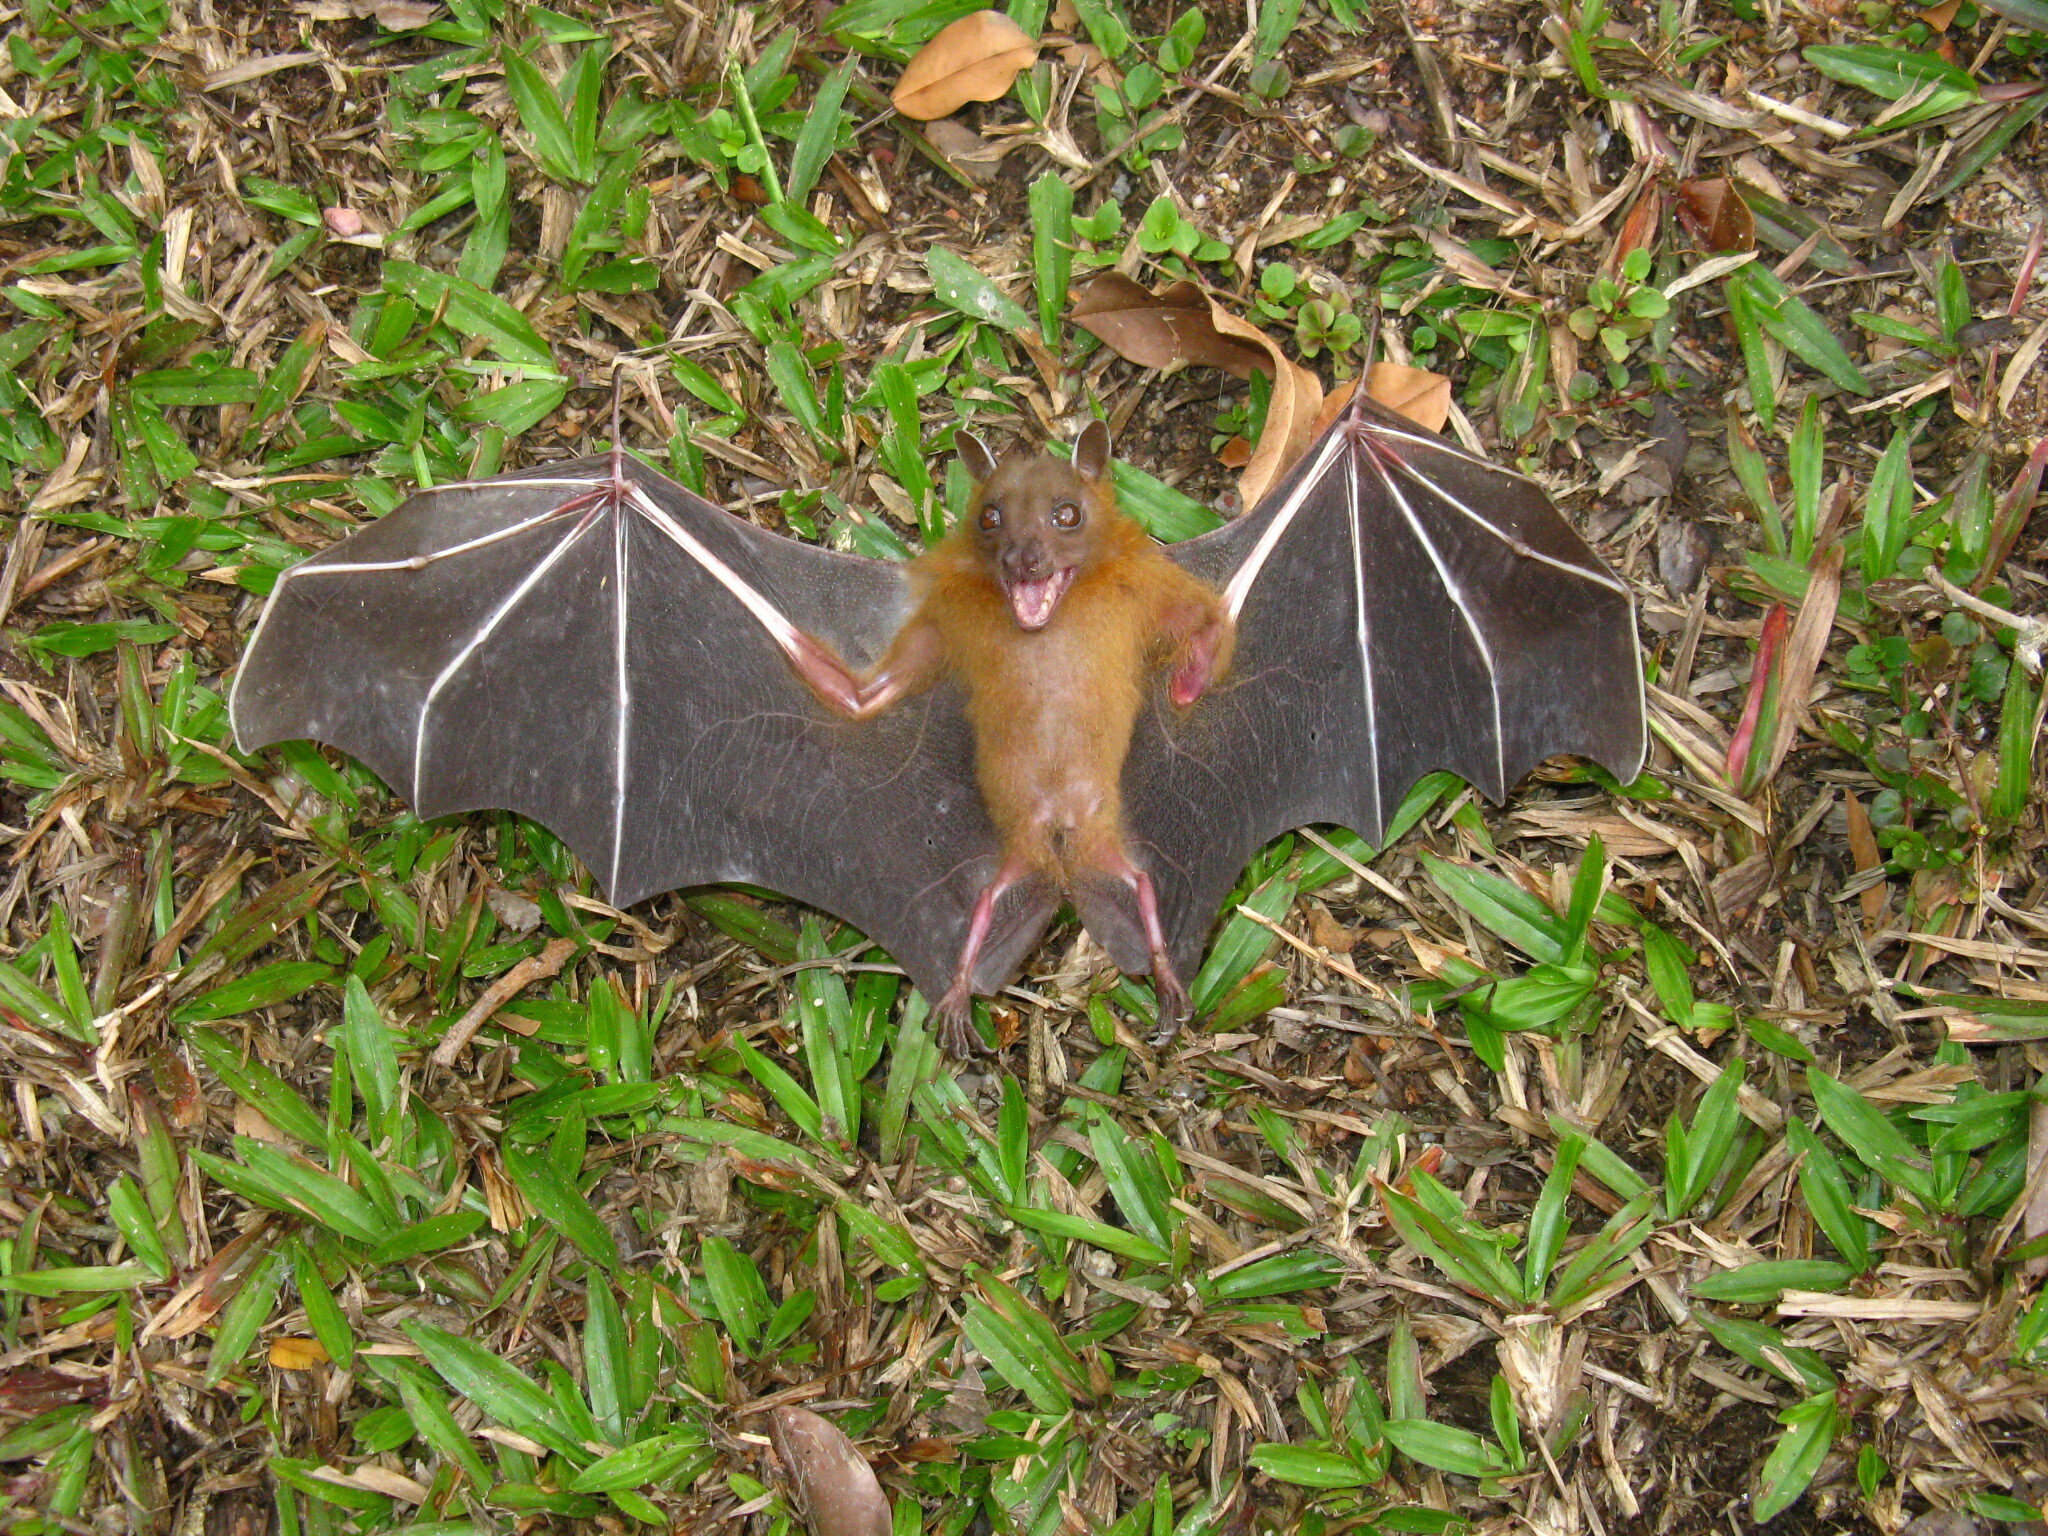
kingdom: Animalia
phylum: Chordata
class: Mammalia
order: Chiroptera
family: Pteropodidae
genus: Cynopterus
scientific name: Cynopterus brachyotis
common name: Lesser short-nosed fruit bat
